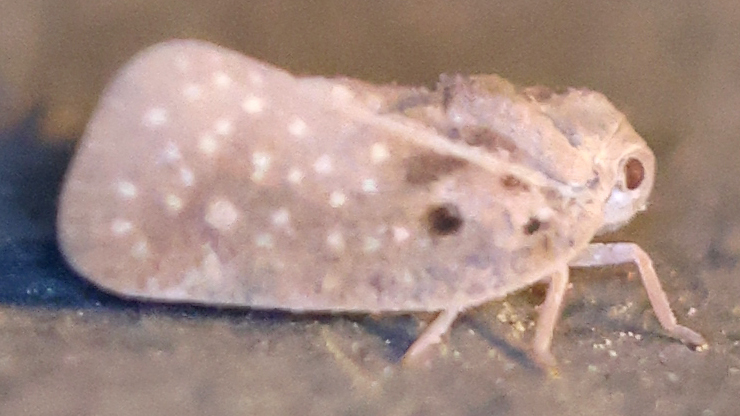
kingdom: Animalia
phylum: Arthropoda
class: Insecta
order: Hemiptera
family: Flatidae
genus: Metcalfa
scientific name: Metcalfa pruinosa
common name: Citrus flatid planthopper
